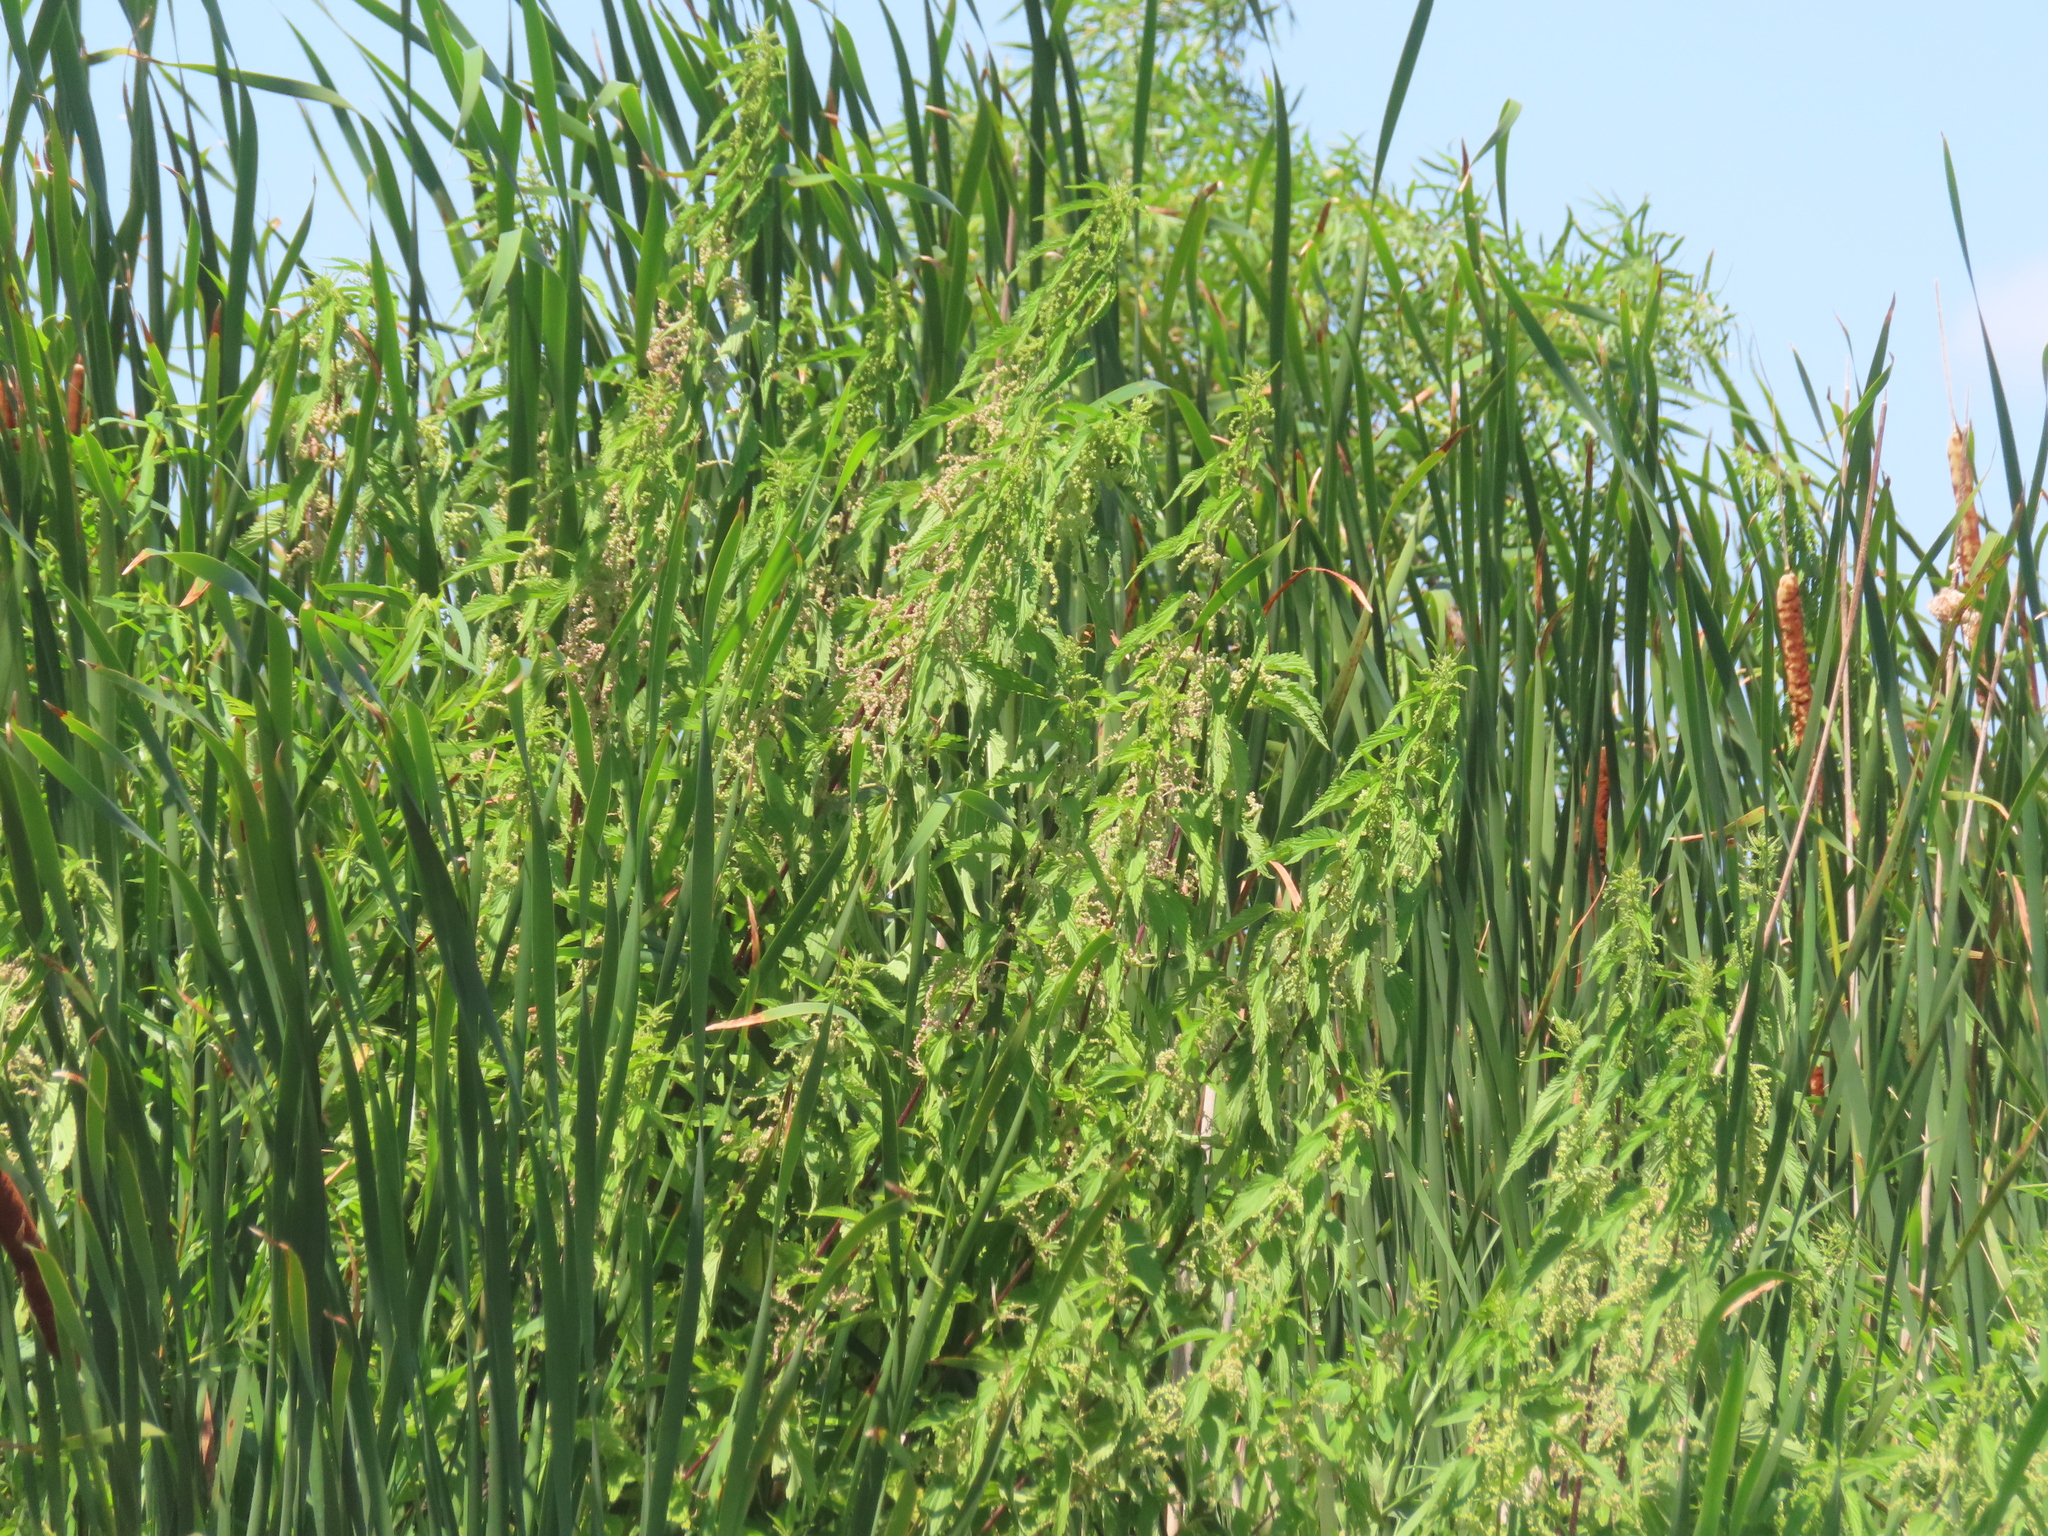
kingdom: Plantae
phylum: Tracheophyta
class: Magnoliopsida
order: Rosales
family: Urticaceae
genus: Urtica
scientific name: Urtica gracilis
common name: Slender stinging nettle
